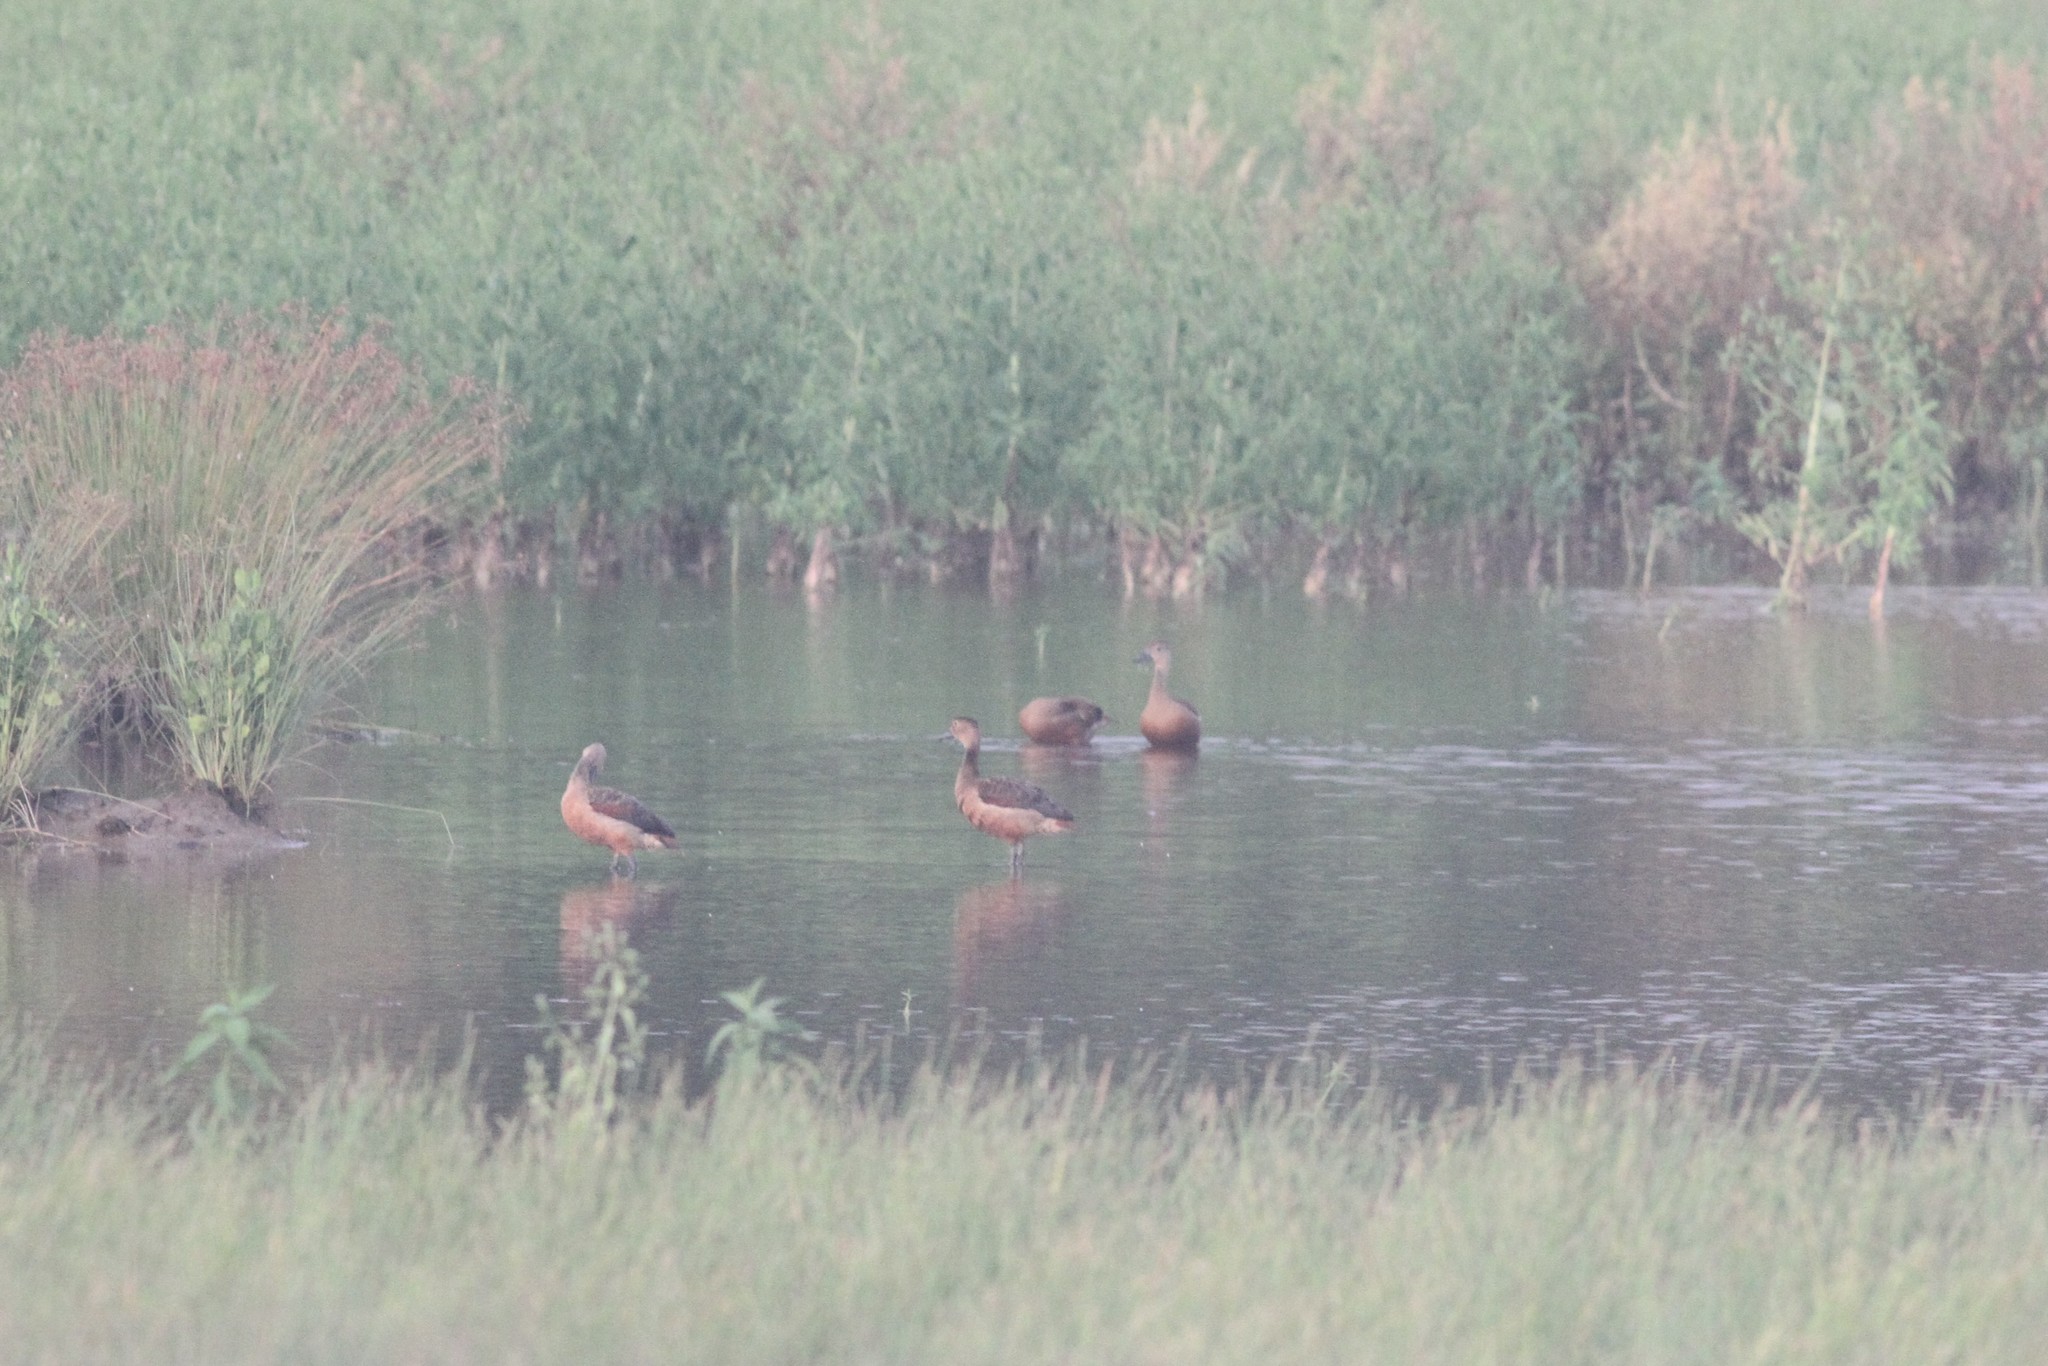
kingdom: Animalia
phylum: Chordata
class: Aves
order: Anseriformes
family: Anatidae
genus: Dendrocygna
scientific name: Dendrocygna javanica
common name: Lesser whistling-duck
